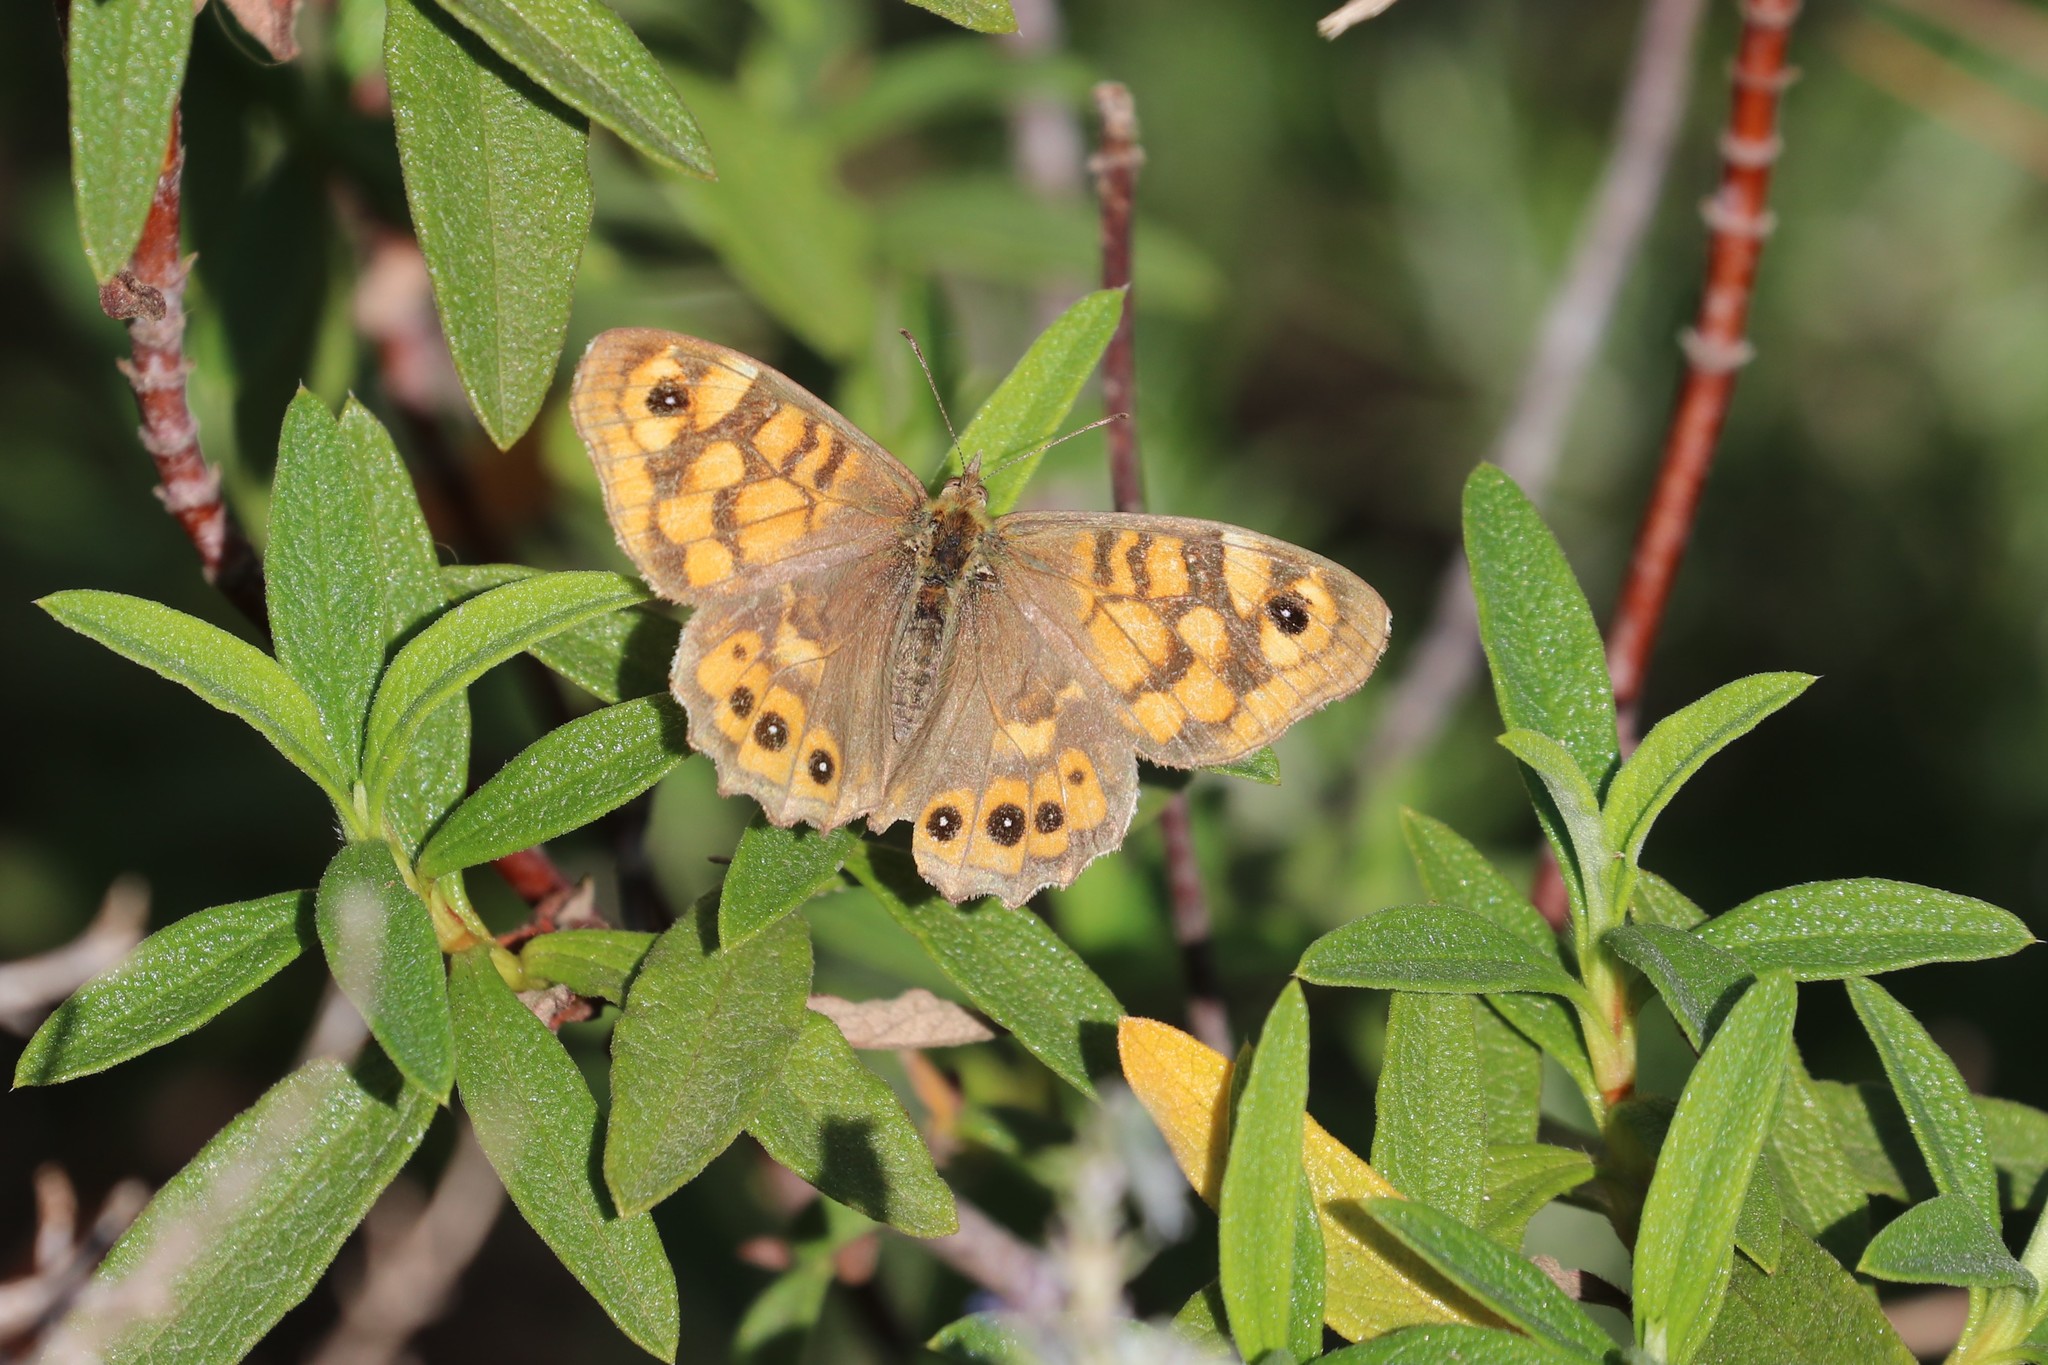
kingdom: Animalia
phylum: Arthropoda
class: Insecta
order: Lepidoptera
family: Nymphalidae
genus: Pararge
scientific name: Pararge Lasiommata megera
